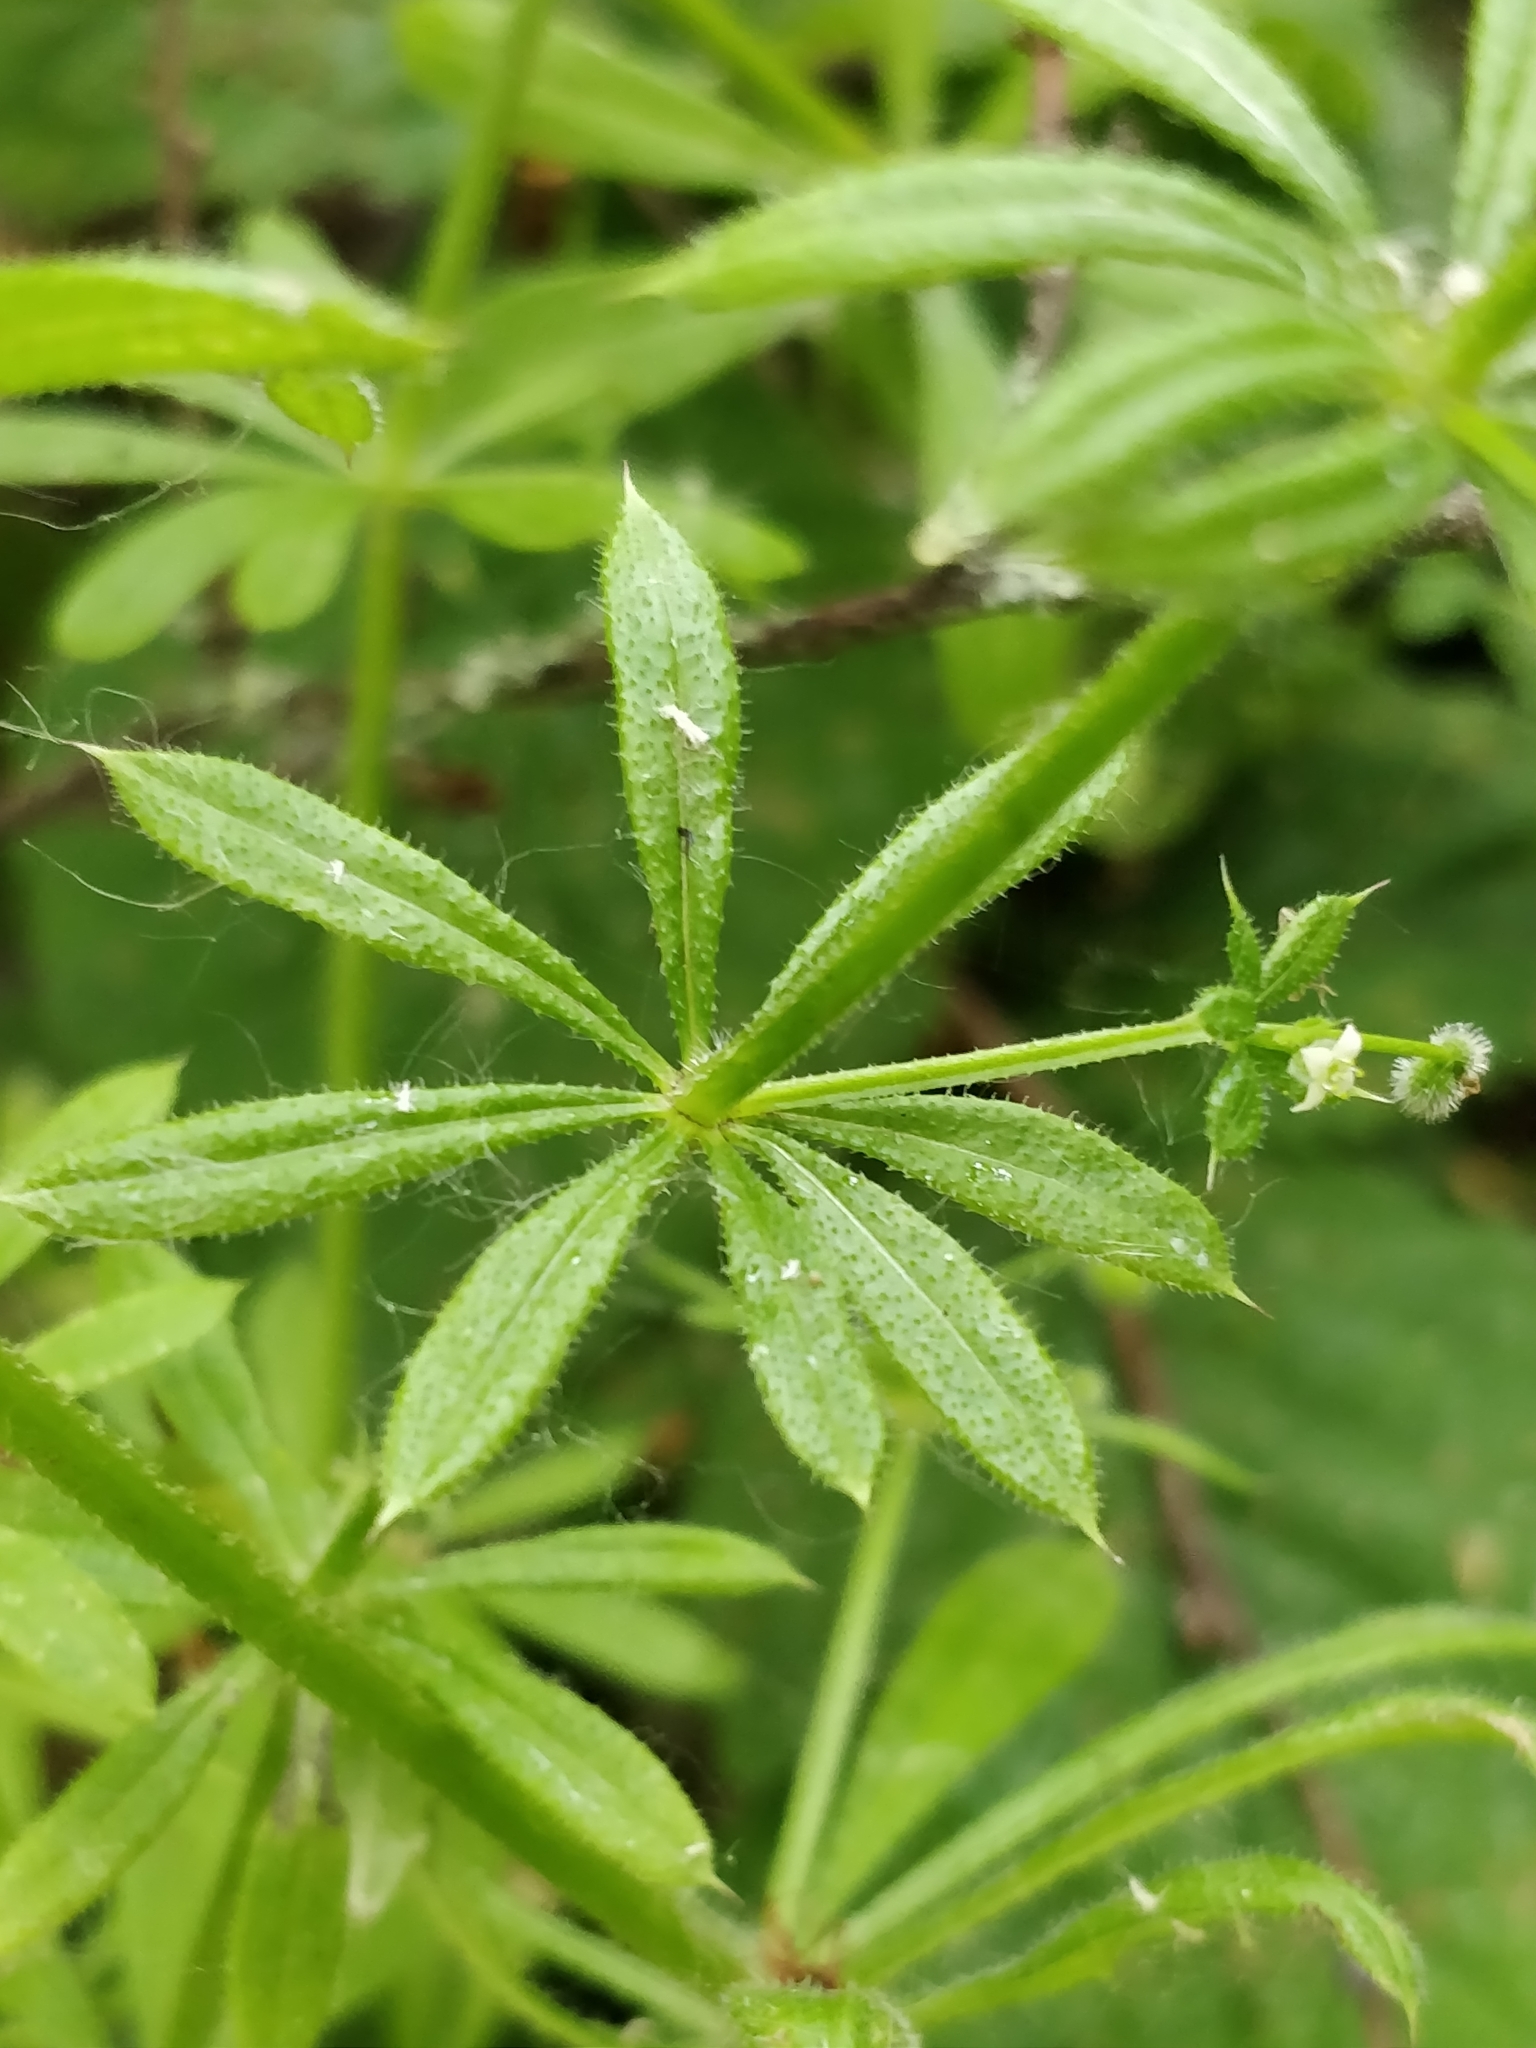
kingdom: Plantae
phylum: Tracheophyta
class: Magnoliopsida
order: Gentianales
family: Rubiaceae
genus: Galium
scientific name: Galium aparine
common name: Cleavers
